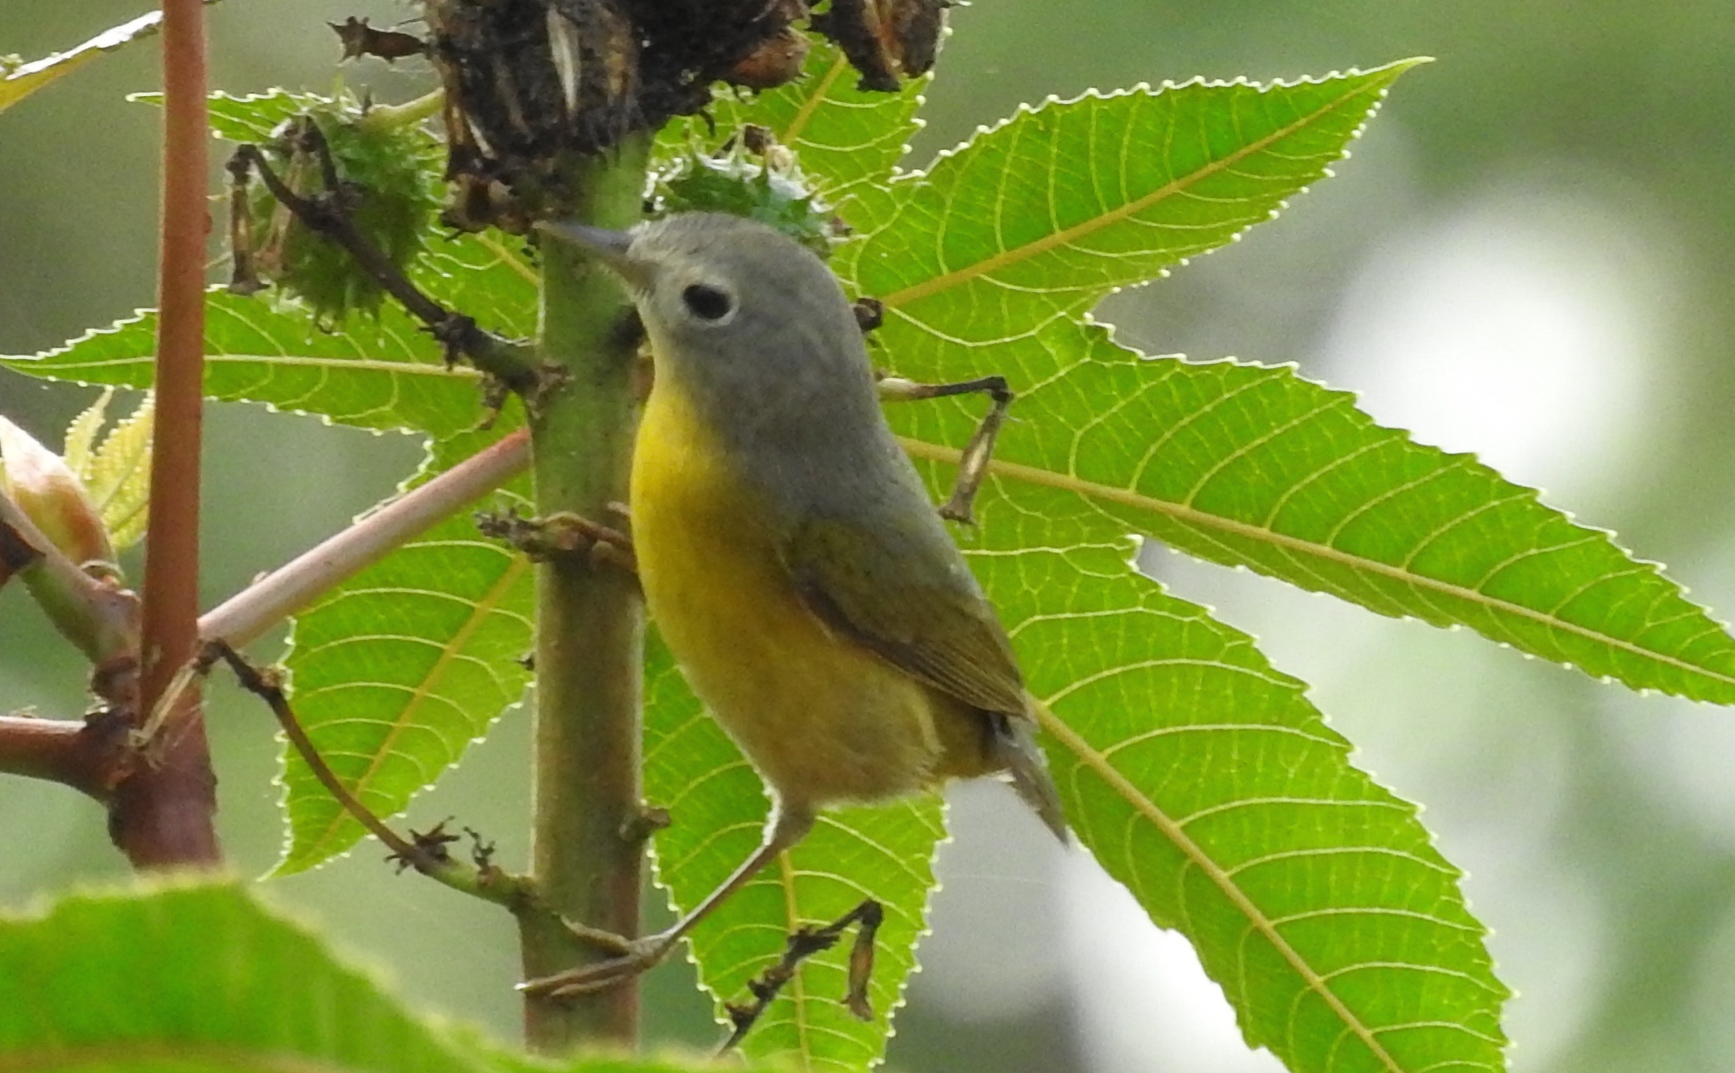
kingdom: Animalia
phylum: Chordata
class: Aves
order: Passeriformes
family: Parulidae
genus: Leiothlypis
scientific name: Leiothlypis ruficapilla
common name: Nashville warbler
